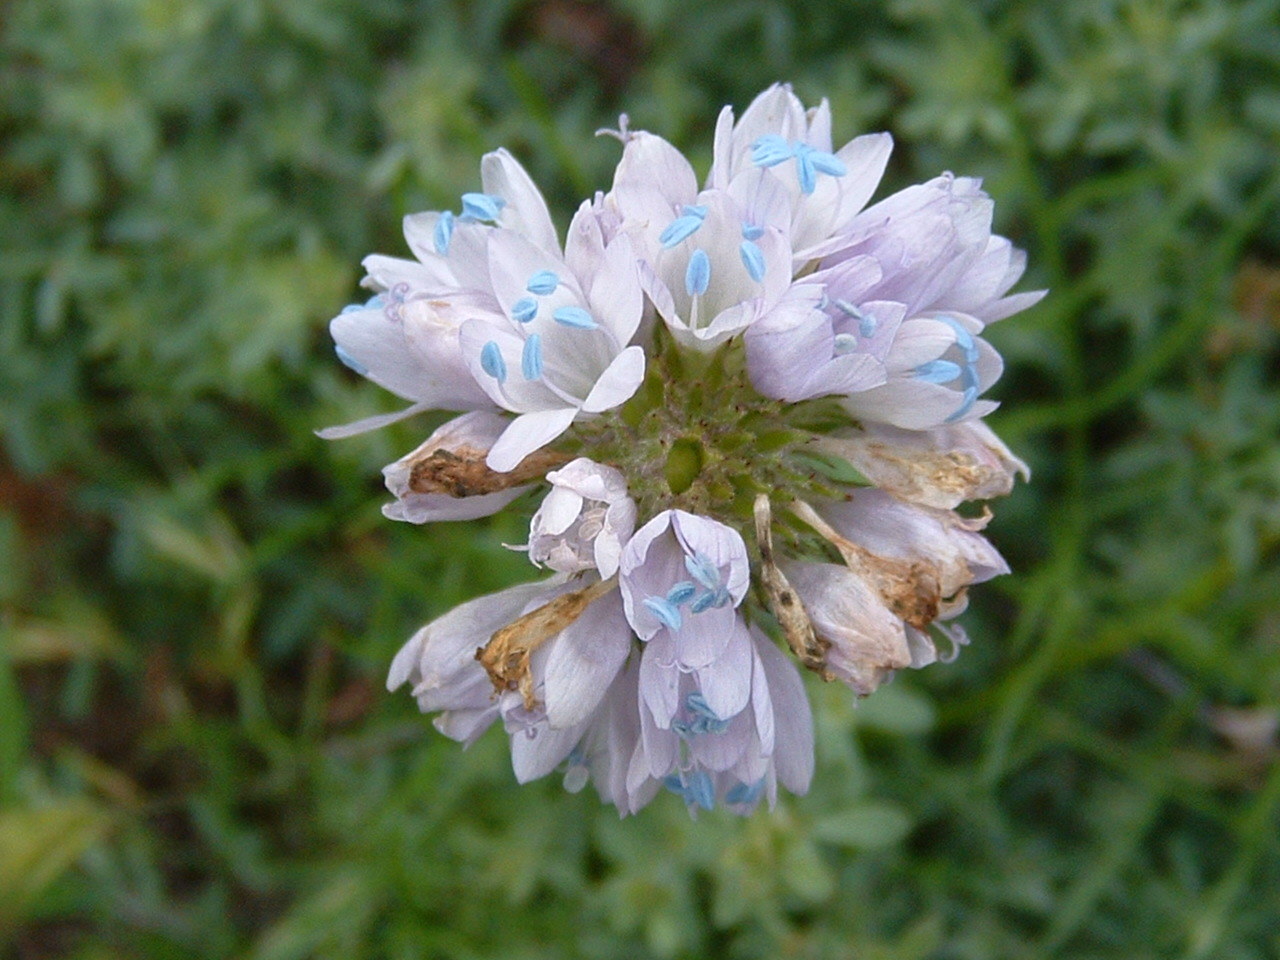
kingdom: Plantae
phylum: Tracheophyta
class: Magnoliopsida
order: Ericales
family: Polemoniaceae
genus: Gilia
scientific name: Gilia capitata
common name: Bluehead gilia
